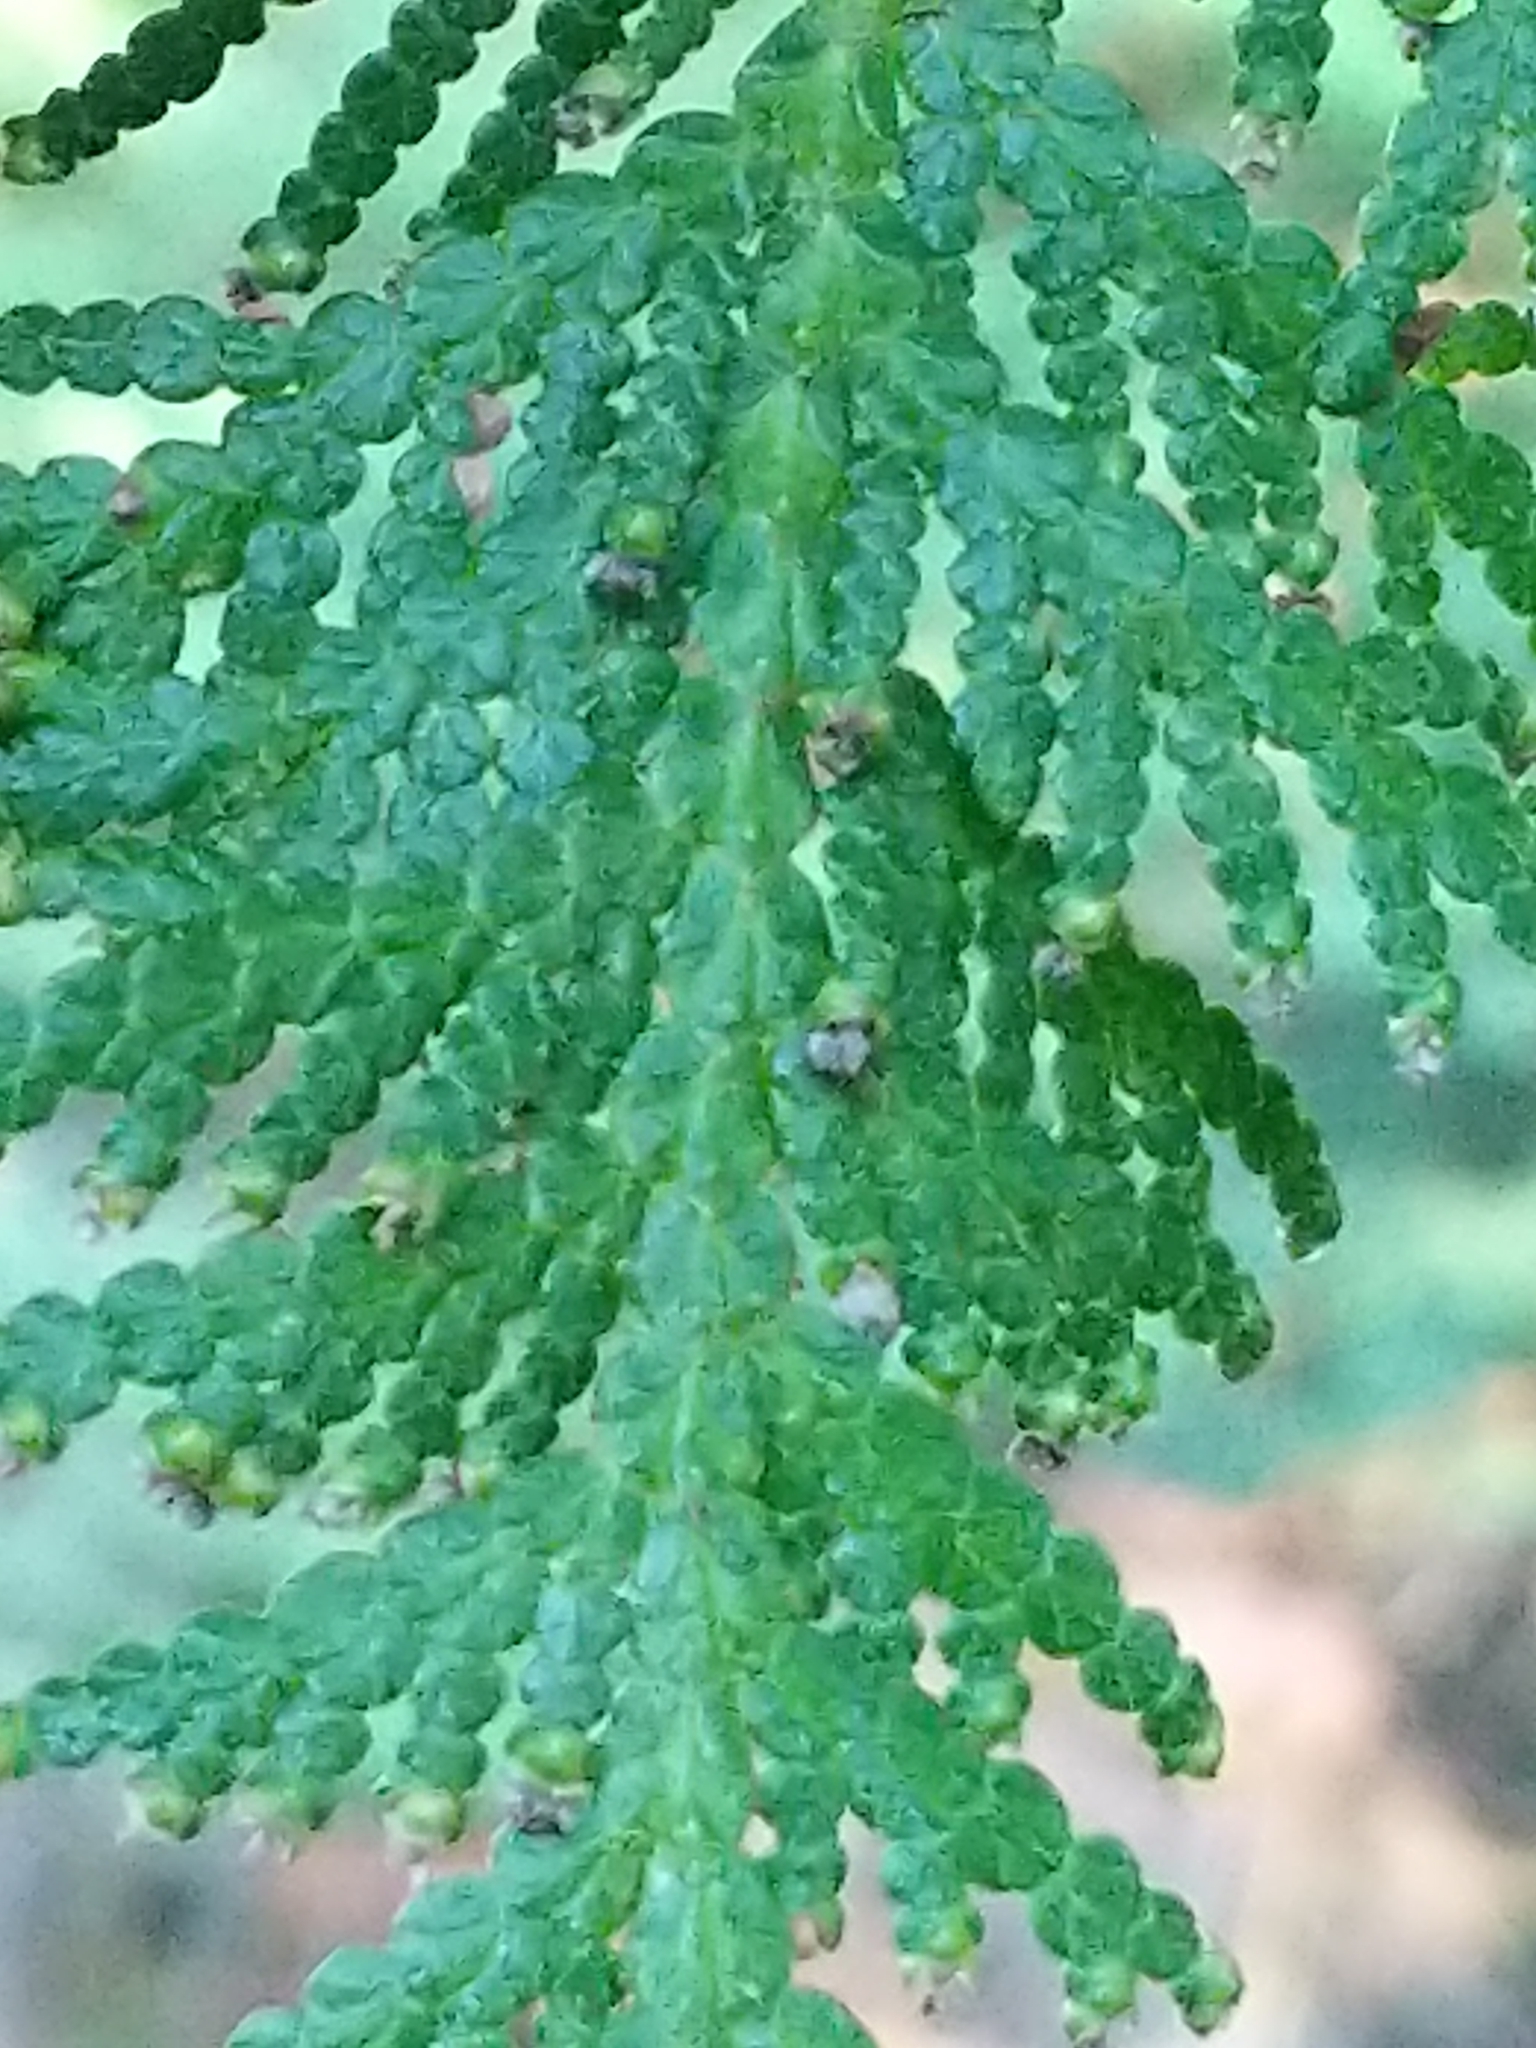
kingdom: Plantae
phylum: Tracheophyta
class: Pinopsida
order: Pinales
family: Cupressaceae
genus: Thuja
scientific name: Thuja occidentalis
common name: Northern white-cedar
